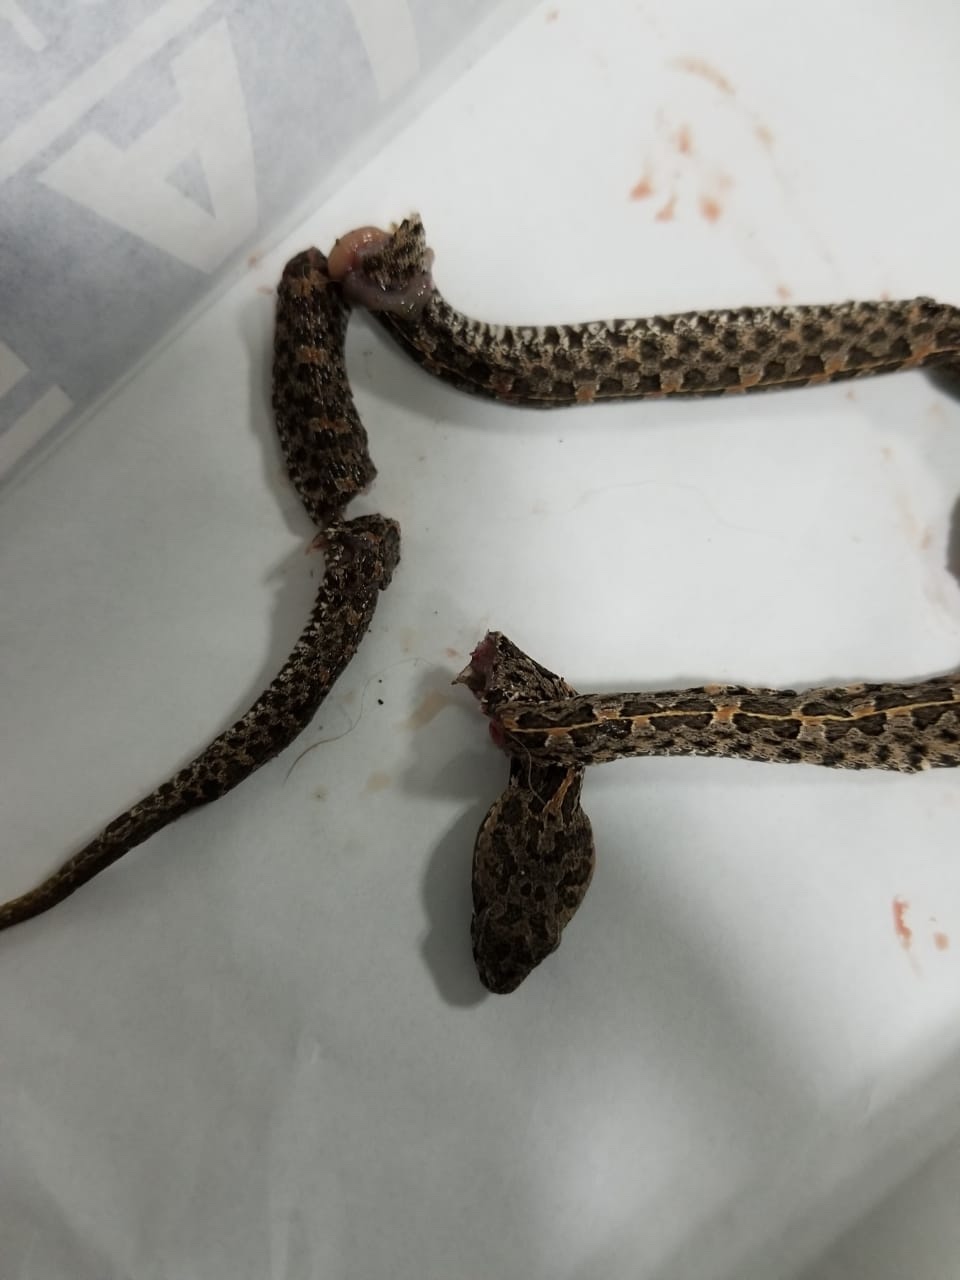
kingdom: Animalia
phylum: Chordata
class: Squamata
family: Viperidae
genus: Porthidium
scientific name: Porthidium ophryomegas
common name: Slender hognose viper
